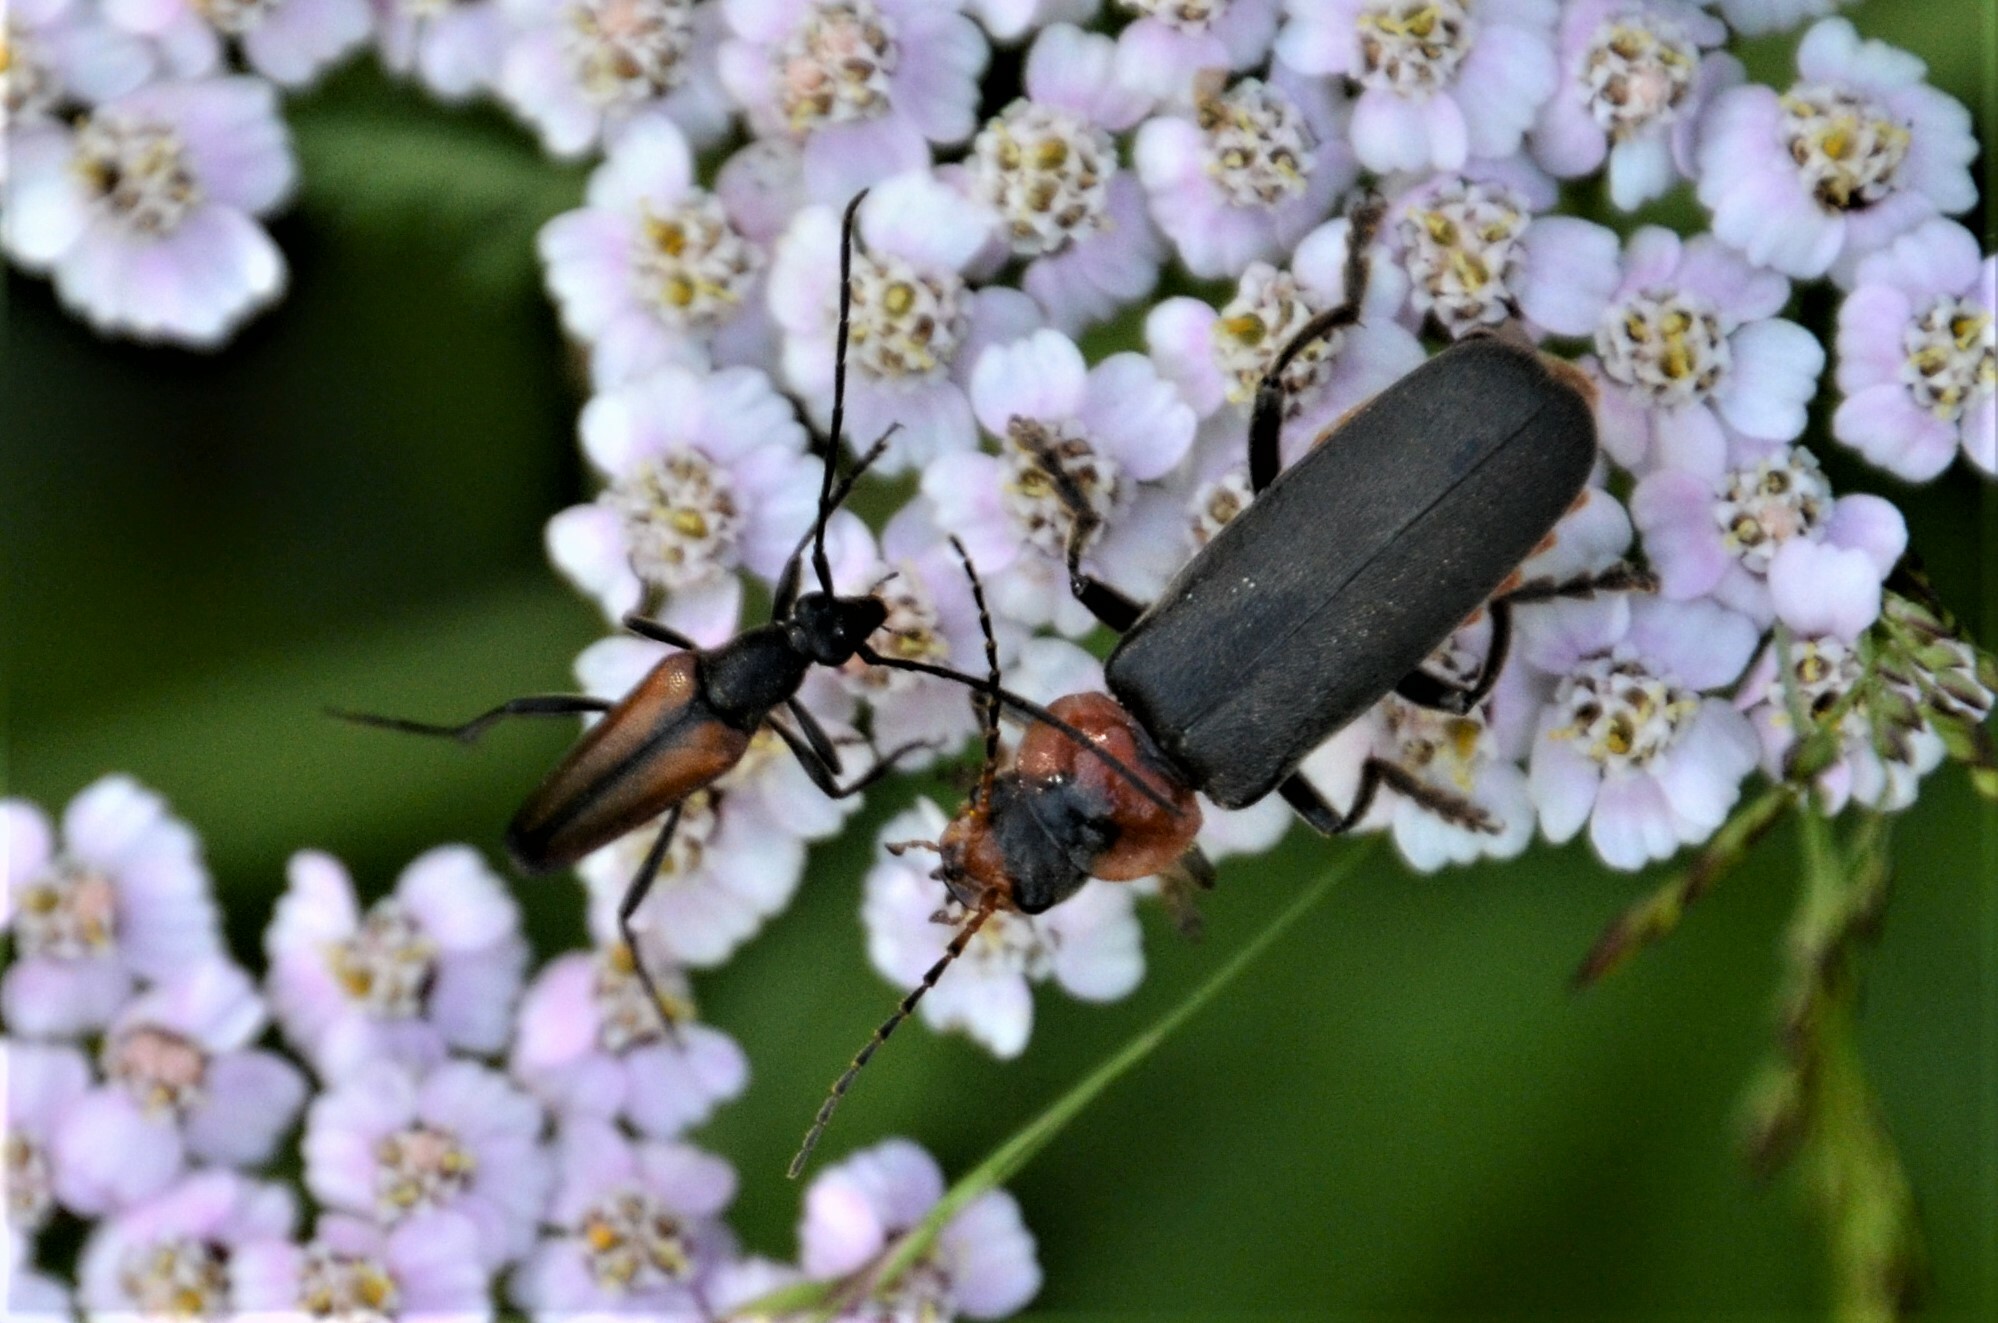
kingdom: Animalia
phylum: Arthropoda
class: Insecta
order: Coleoptera
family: Cantharidae
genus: Cantharis
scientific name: Cantharis fusca
